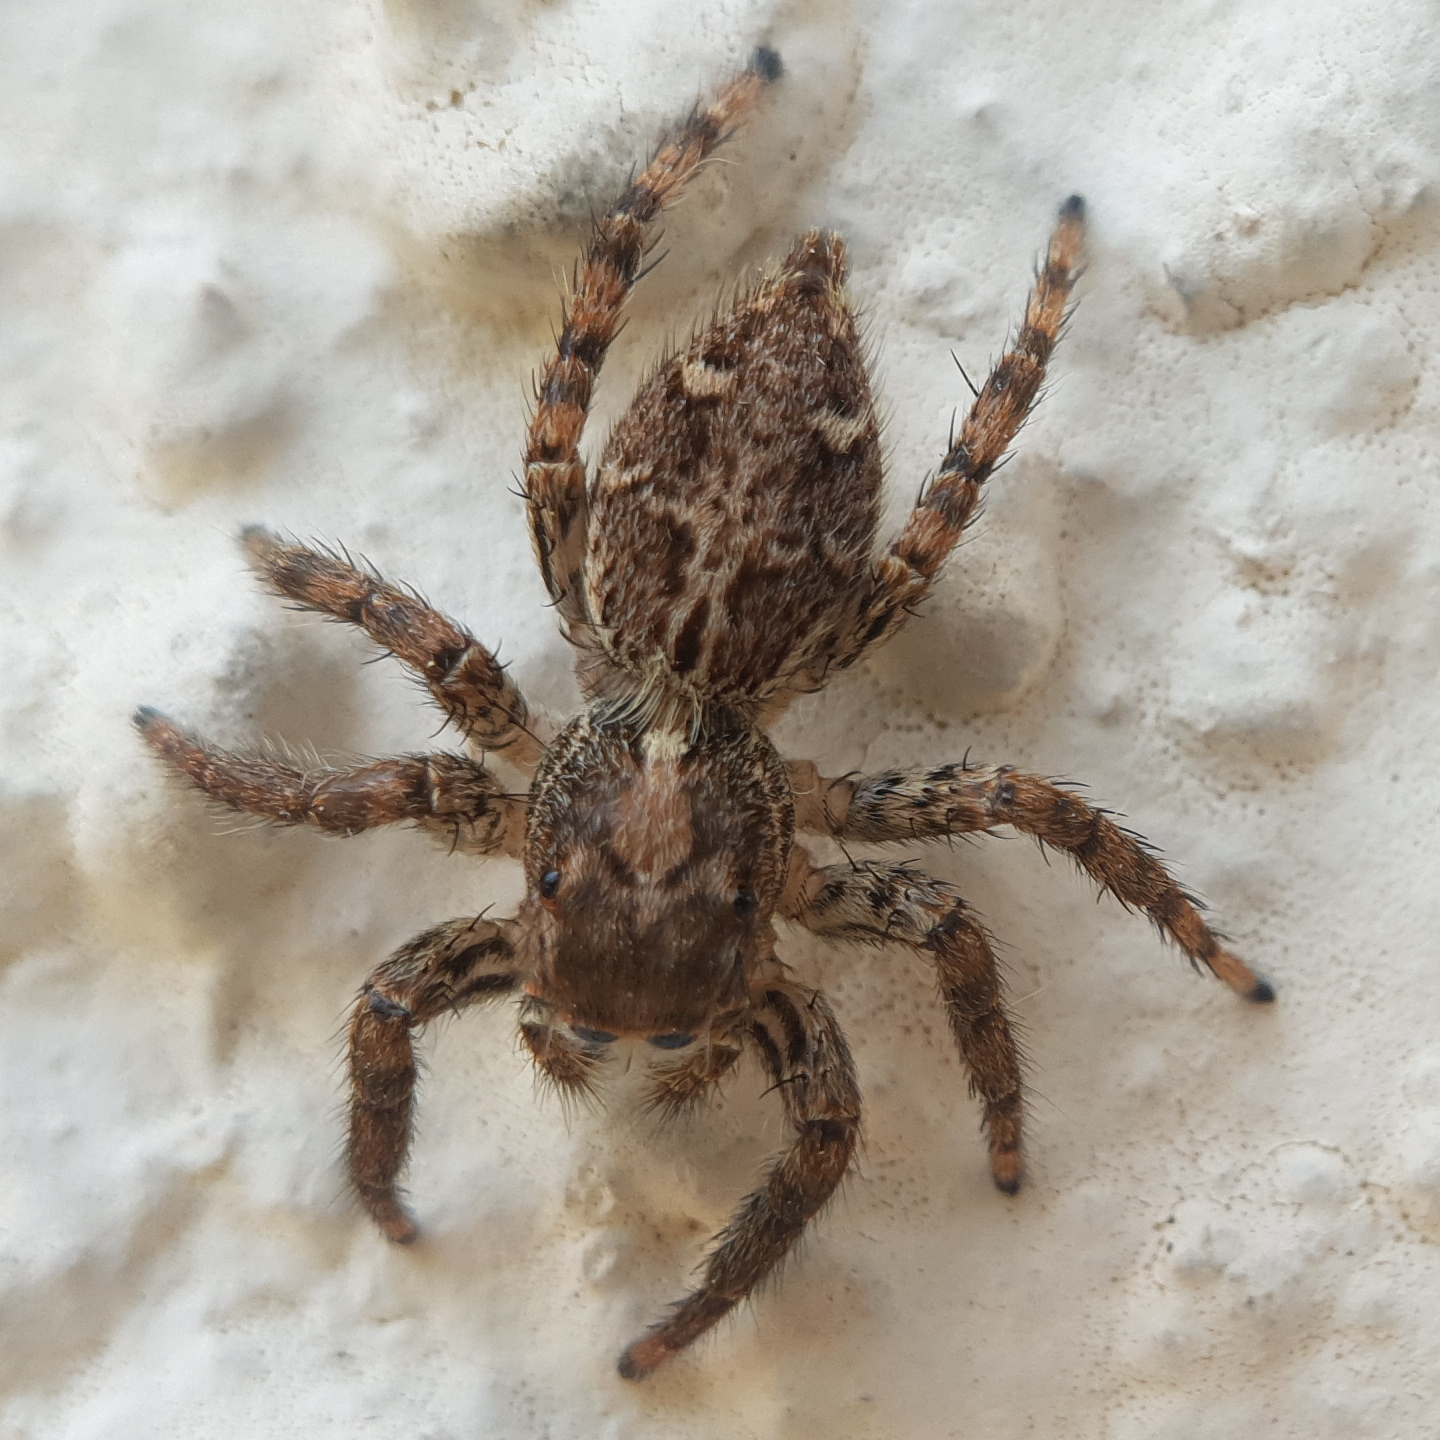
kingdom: Animalia
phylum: Arthropoda
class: Arachnida
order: Araneae
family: Salticidae
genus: Plexippus
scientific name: Plexippus paykulli
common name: Pantropical jumper
